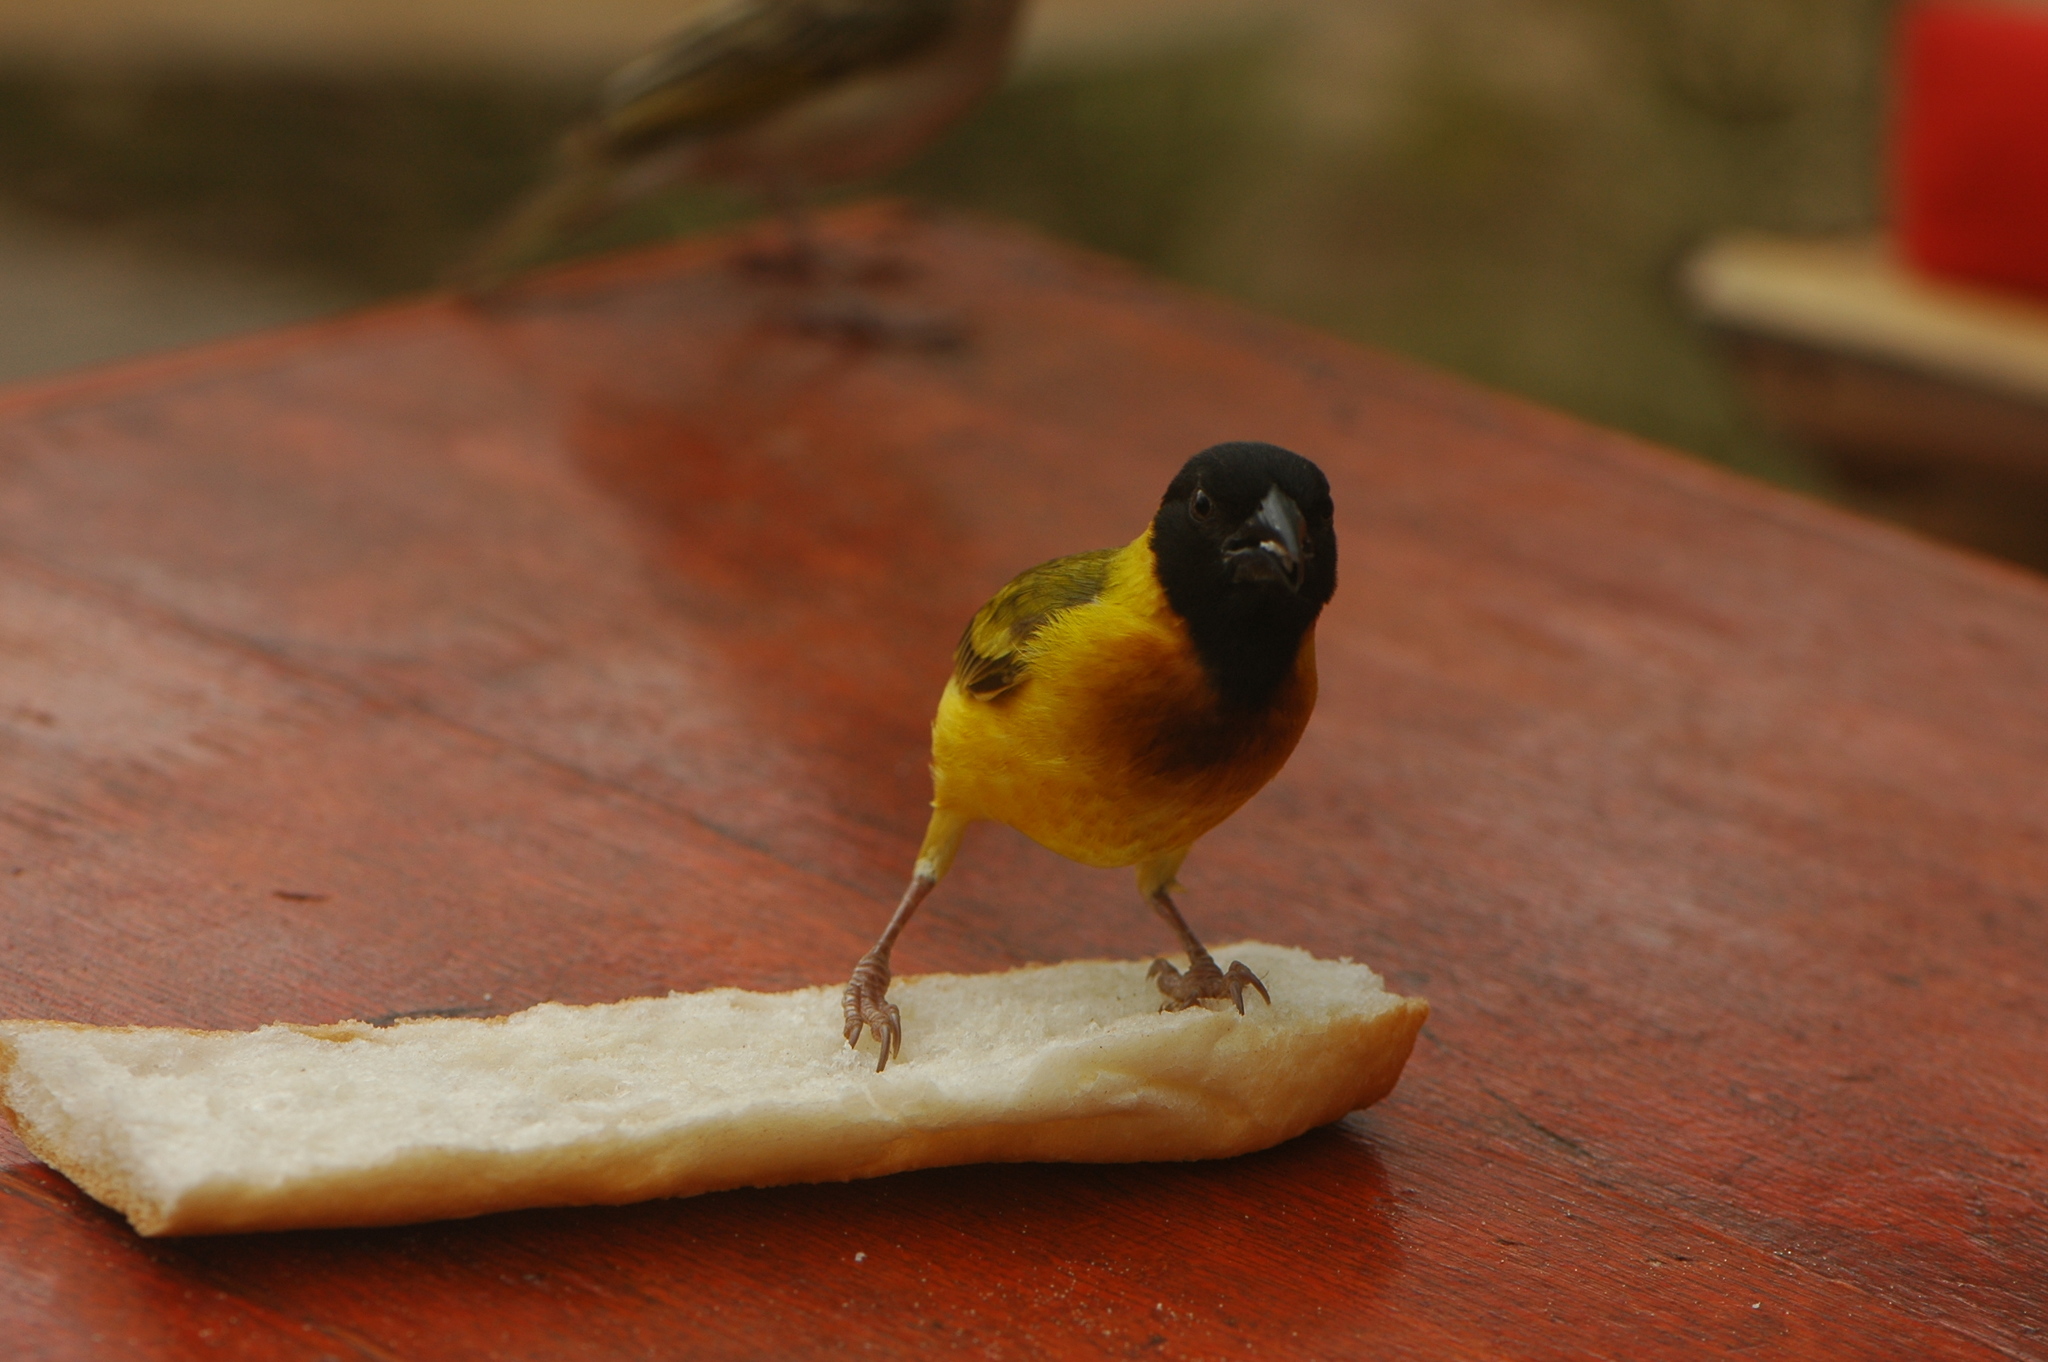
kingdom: Animalia
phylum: Chordata
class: Aves
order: Passeriformes
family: Ploceidae
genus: Ploceus
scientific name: Ploceus melanocephalus
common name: Black-headed weaver
